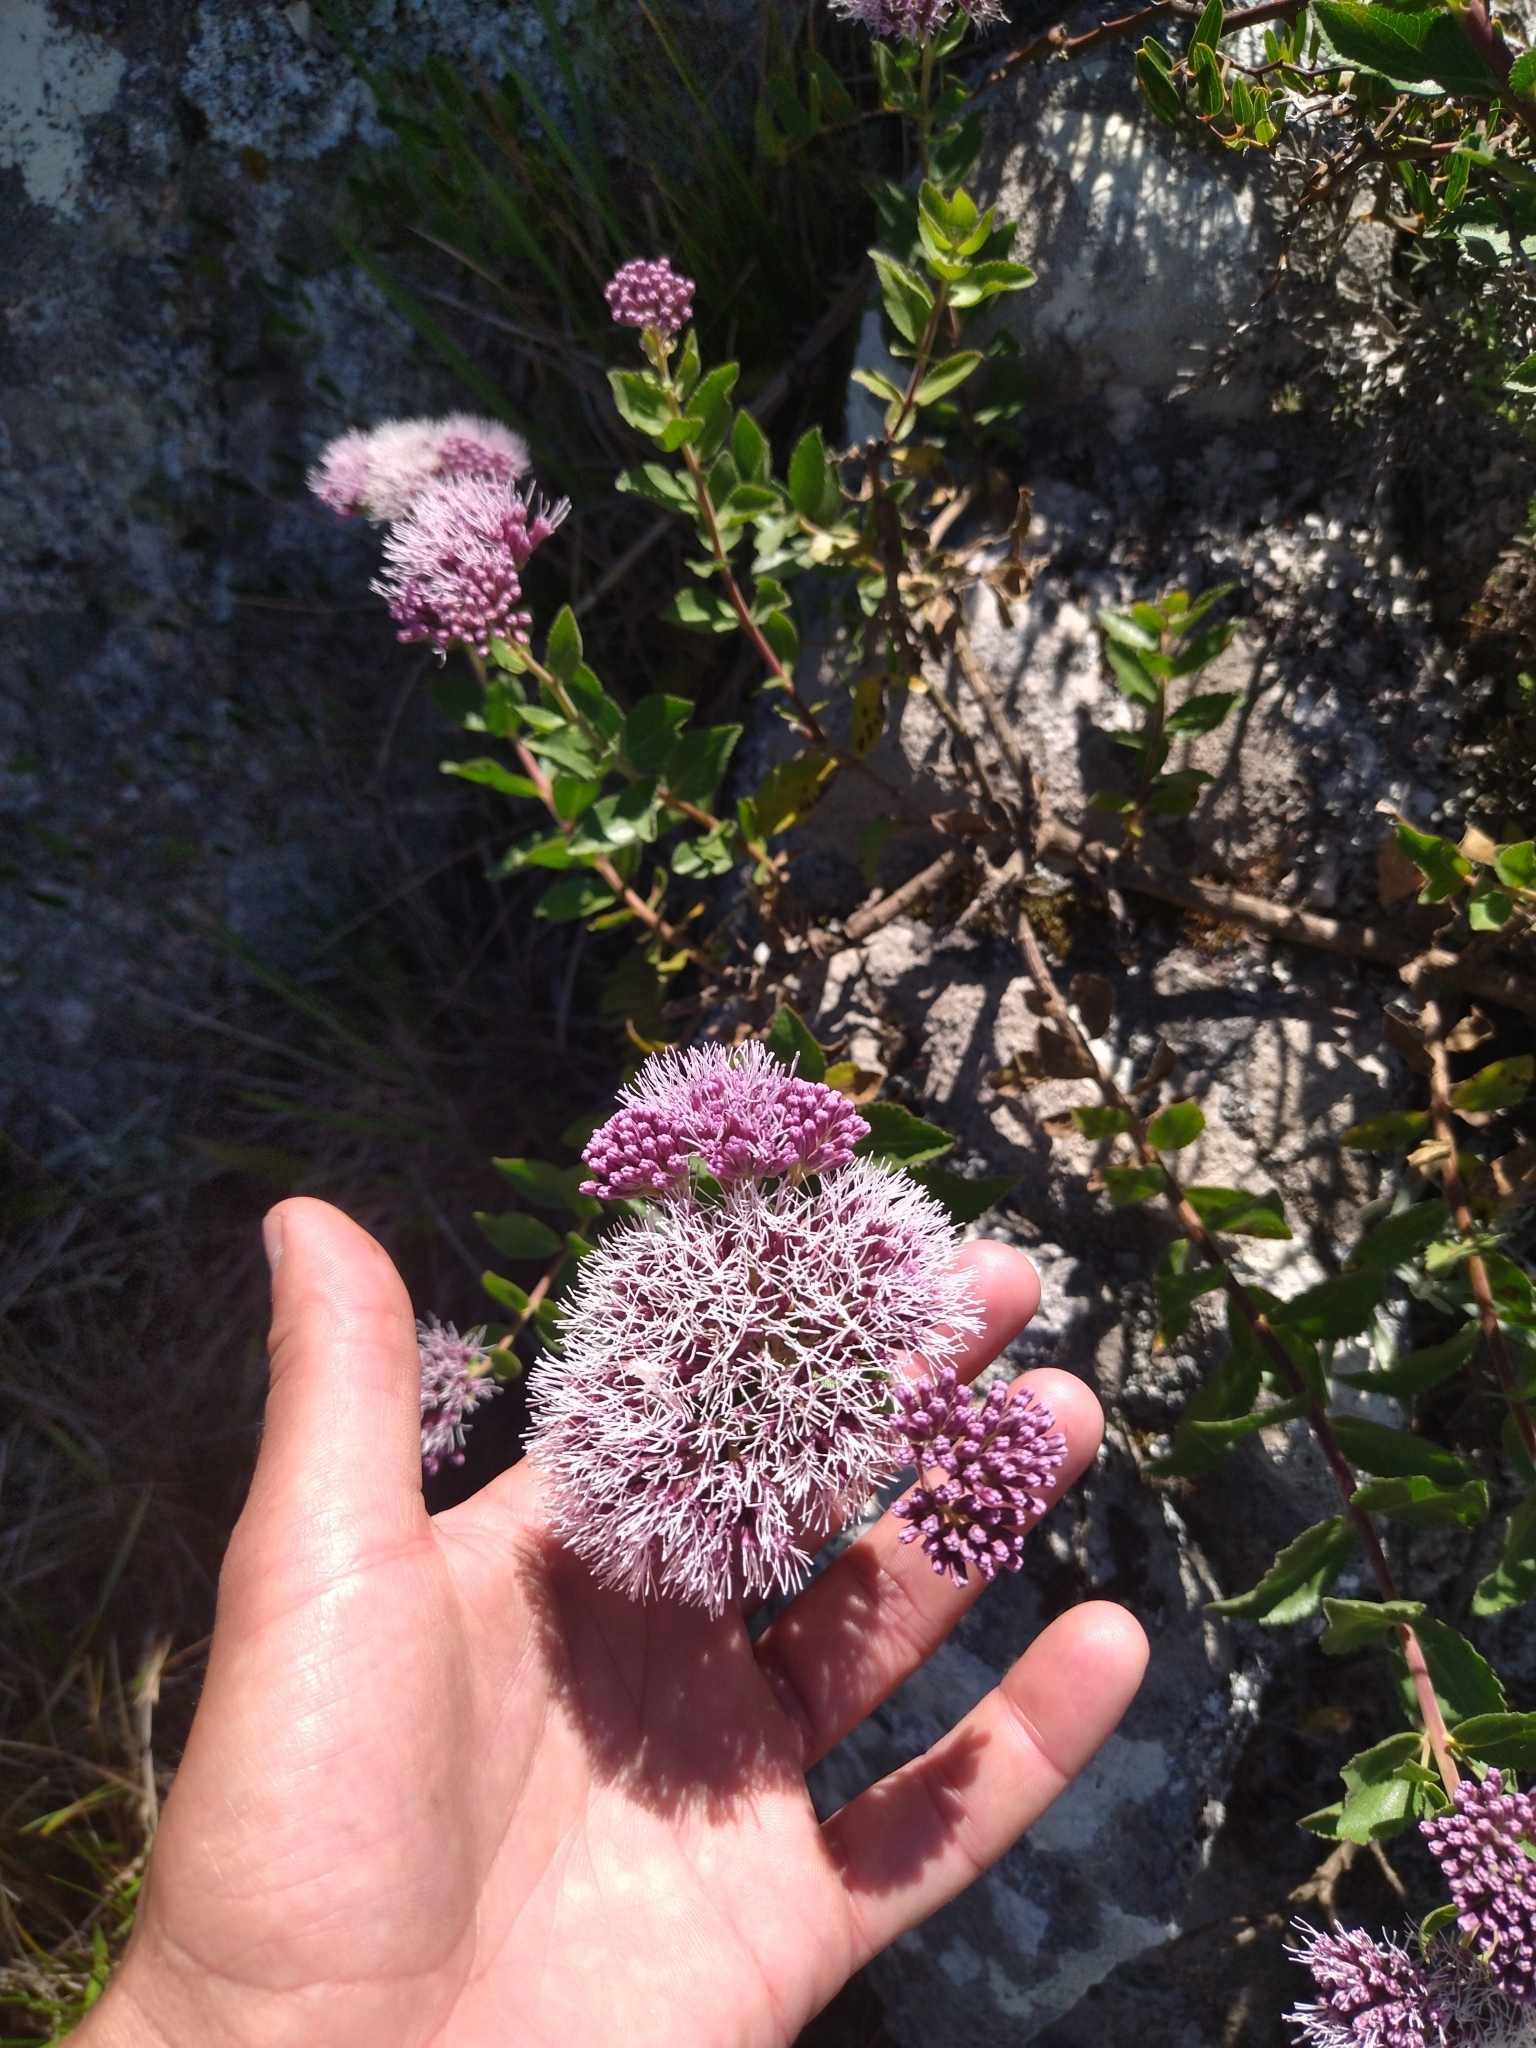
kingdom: Plantae
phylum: Tracheophyta
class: Magnoliopsida
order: Asterales
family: Asteraceae
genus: Grazielia
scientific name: Grazielia brevipetiolata
